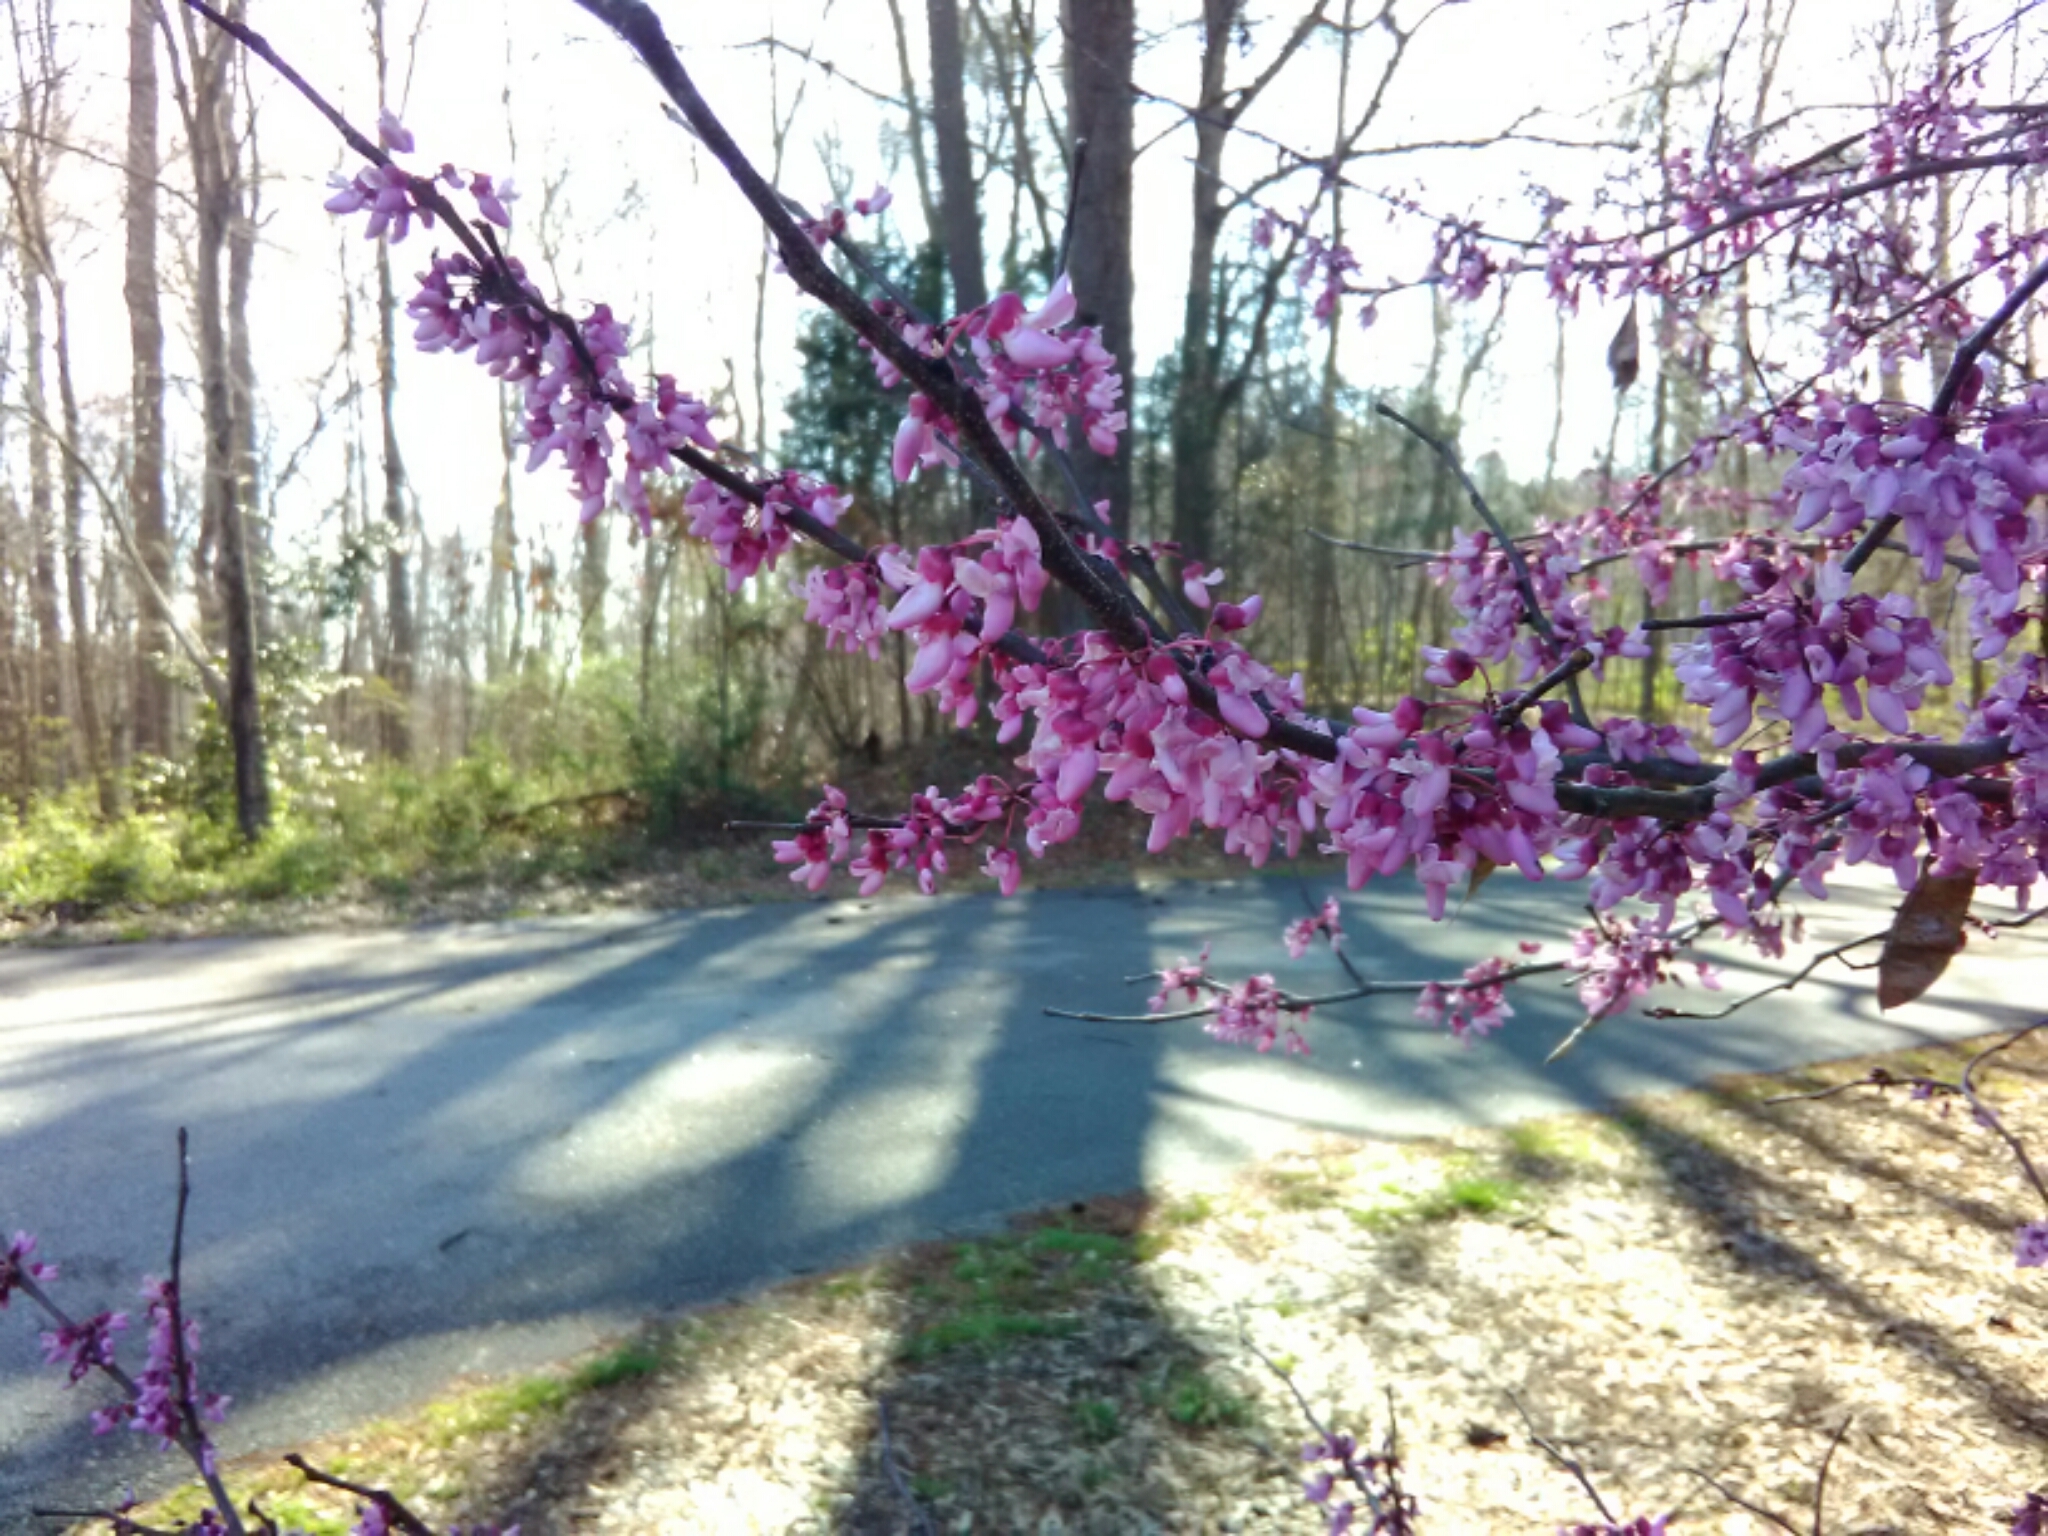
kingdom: Plantae
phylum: Tracheophyta
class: Magnoliopsida
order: Fabales
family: Fabaceae
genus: Cercis
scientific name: Cercis canadensis
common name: Eastern redbud
